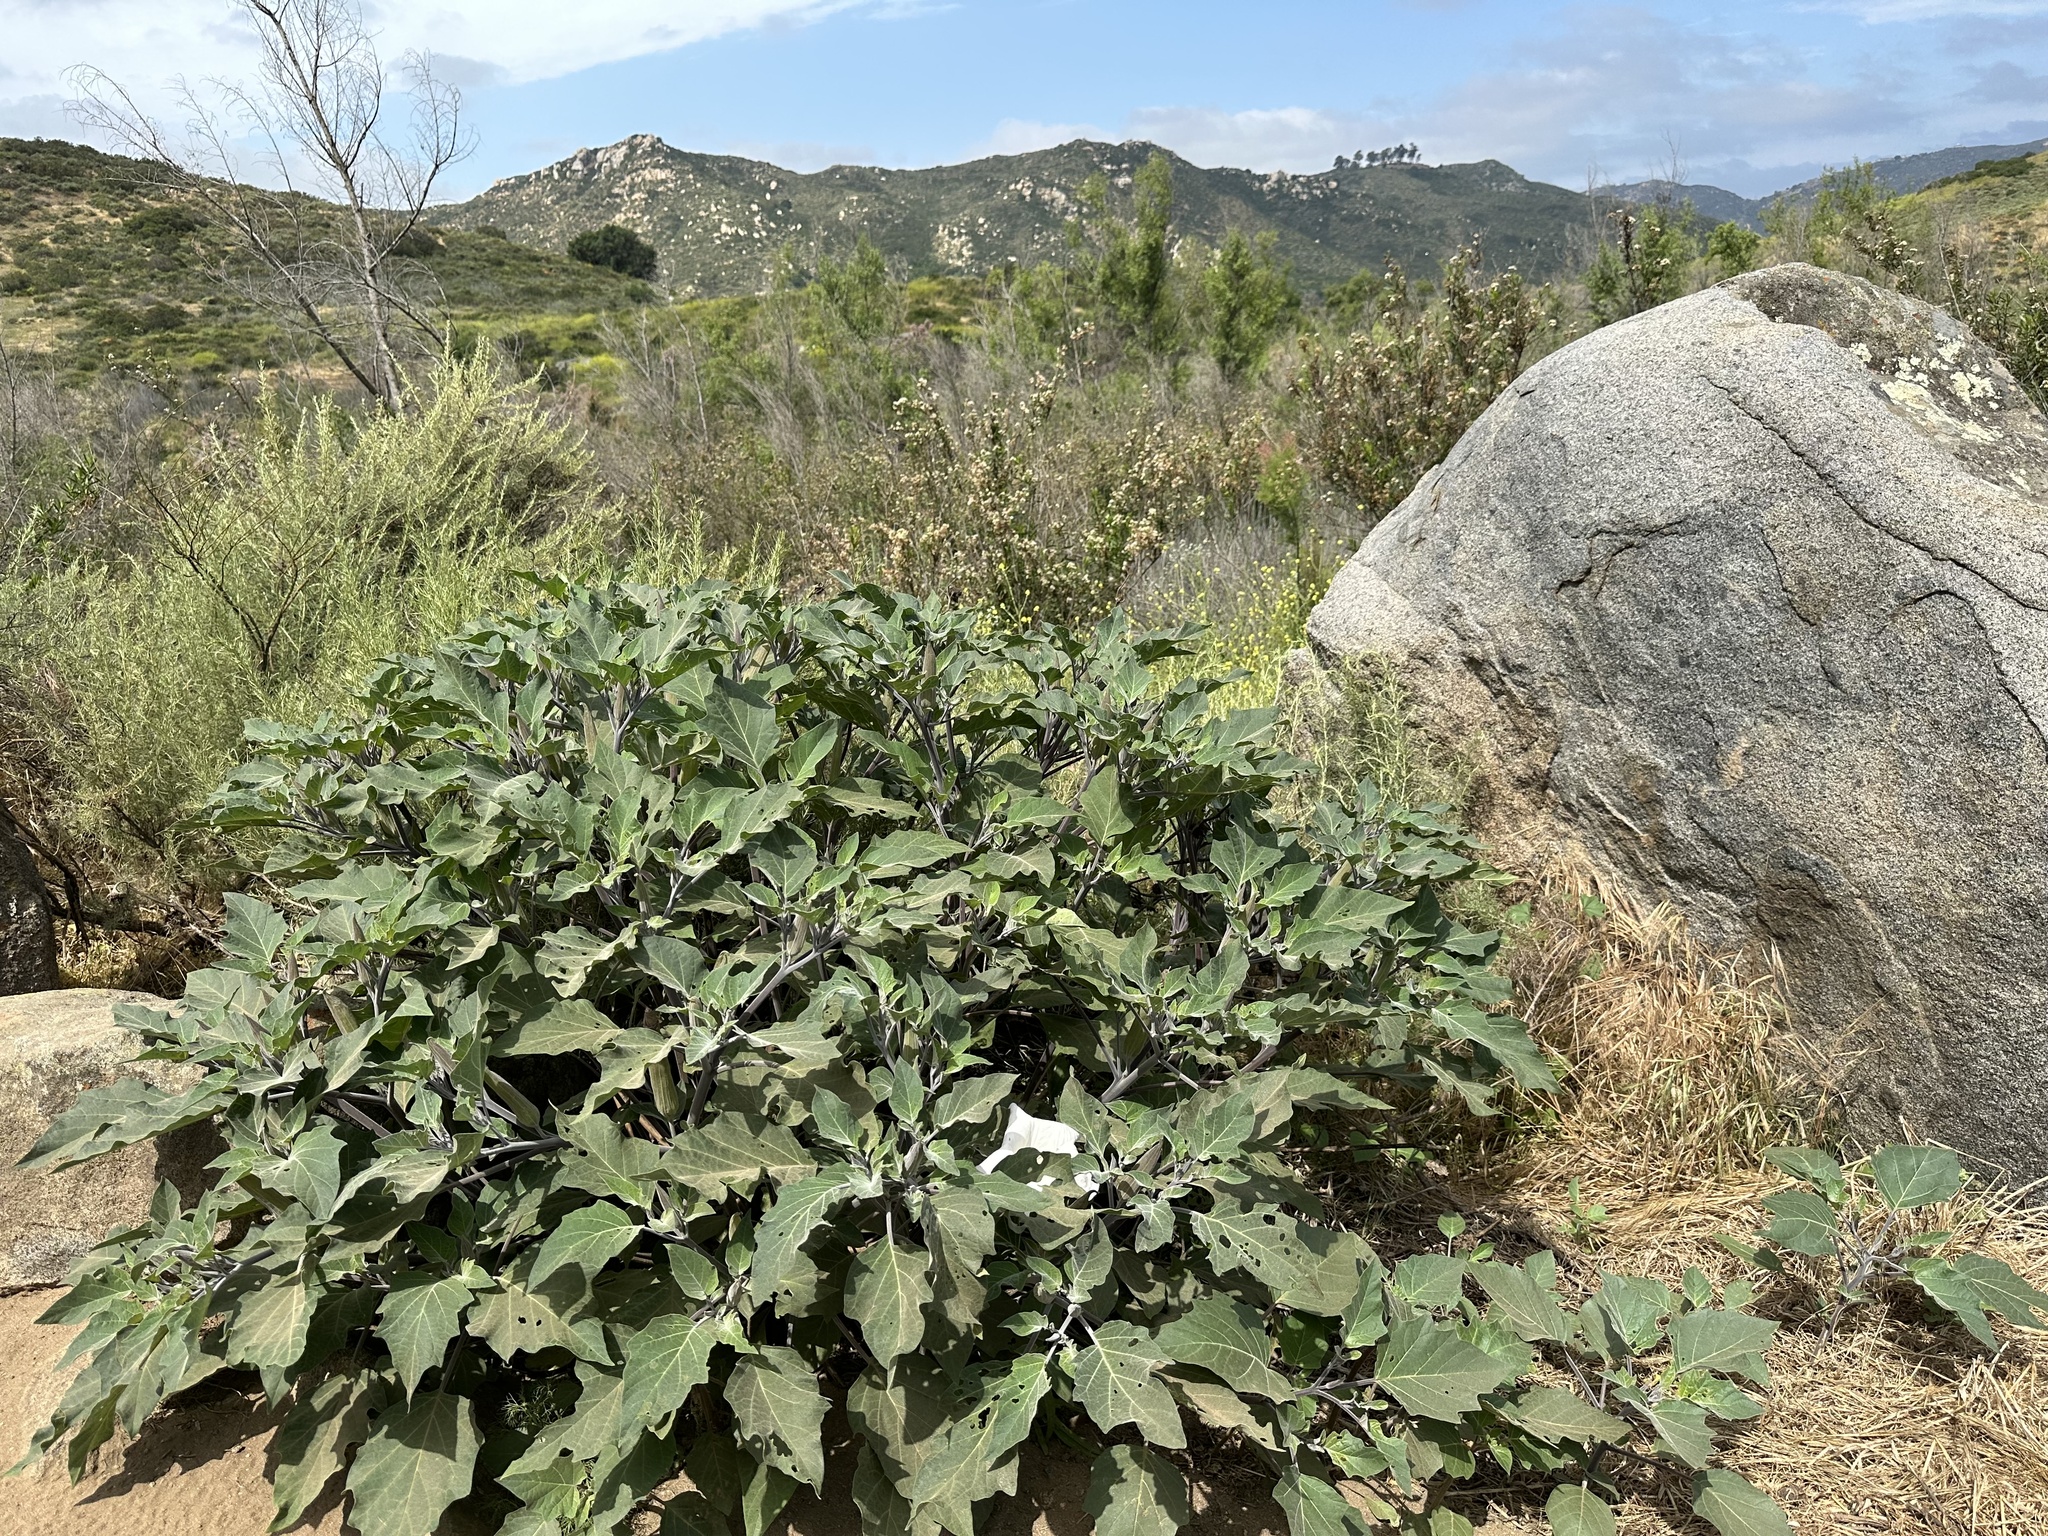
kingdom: Plantae
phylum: Tracheophyta
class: Magnoliopsida
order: Solanales
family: Solanaceae
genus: Datura
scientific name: Datura wrightii
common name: Sacred thorn-apple
